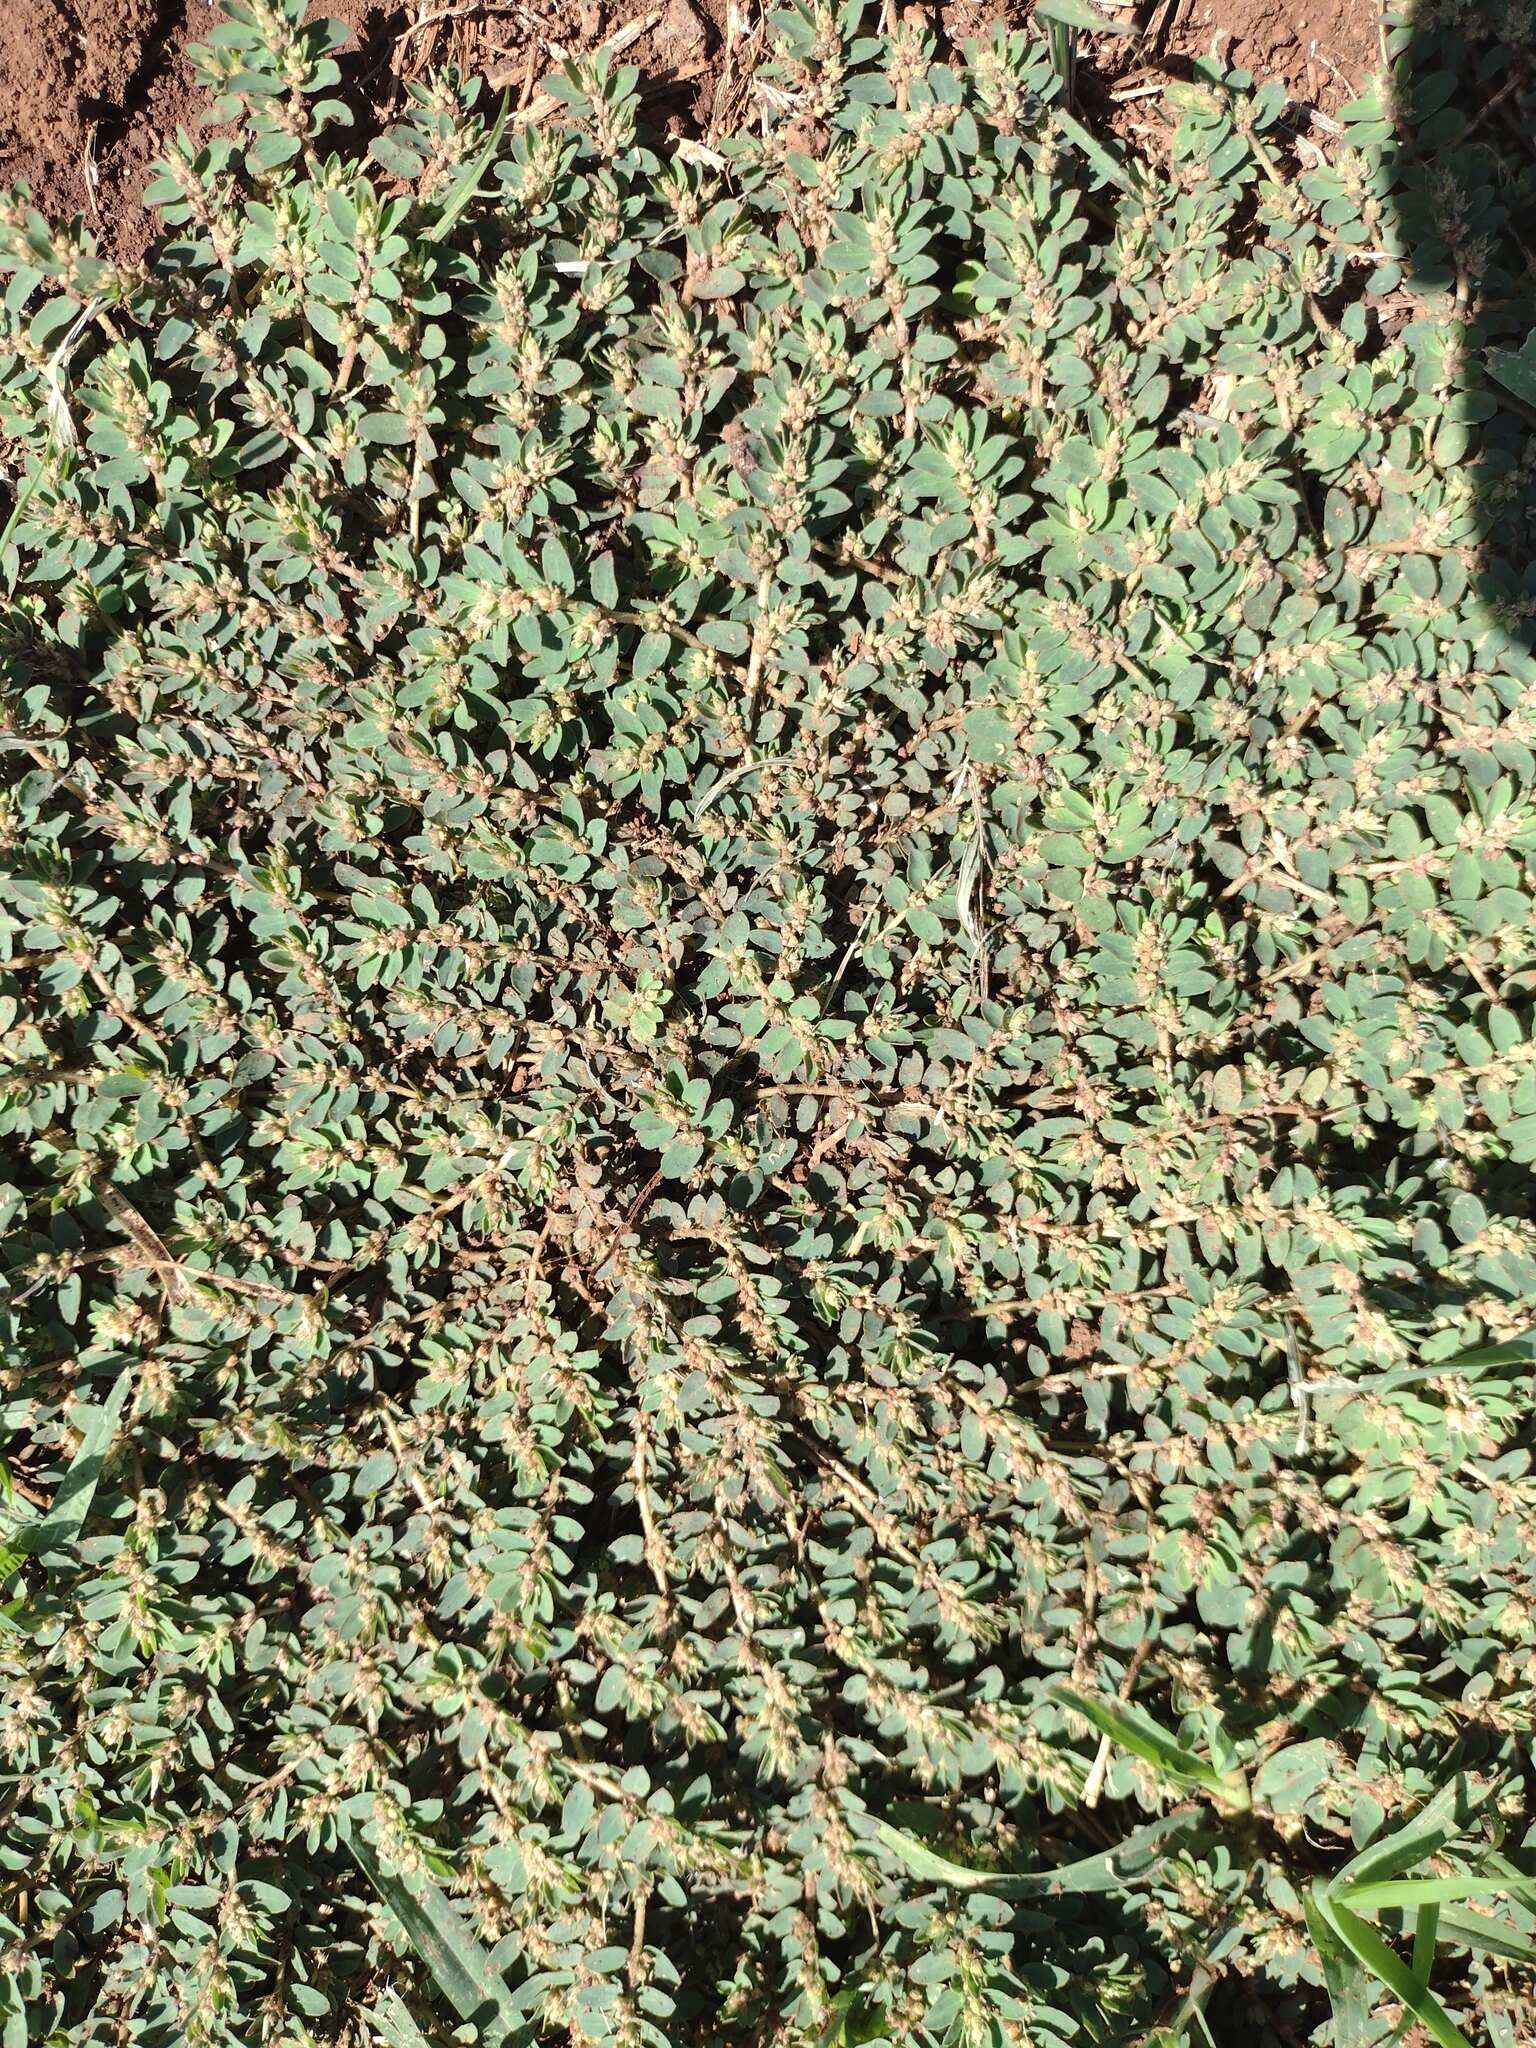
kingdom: Plantae
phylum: Tracheophyta
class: Magnoliopsida
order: Malpighiales
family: Euphorbiaceae
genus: Euphorbia
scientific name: Euphorbia thymifolia
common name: Gulf sandmat
